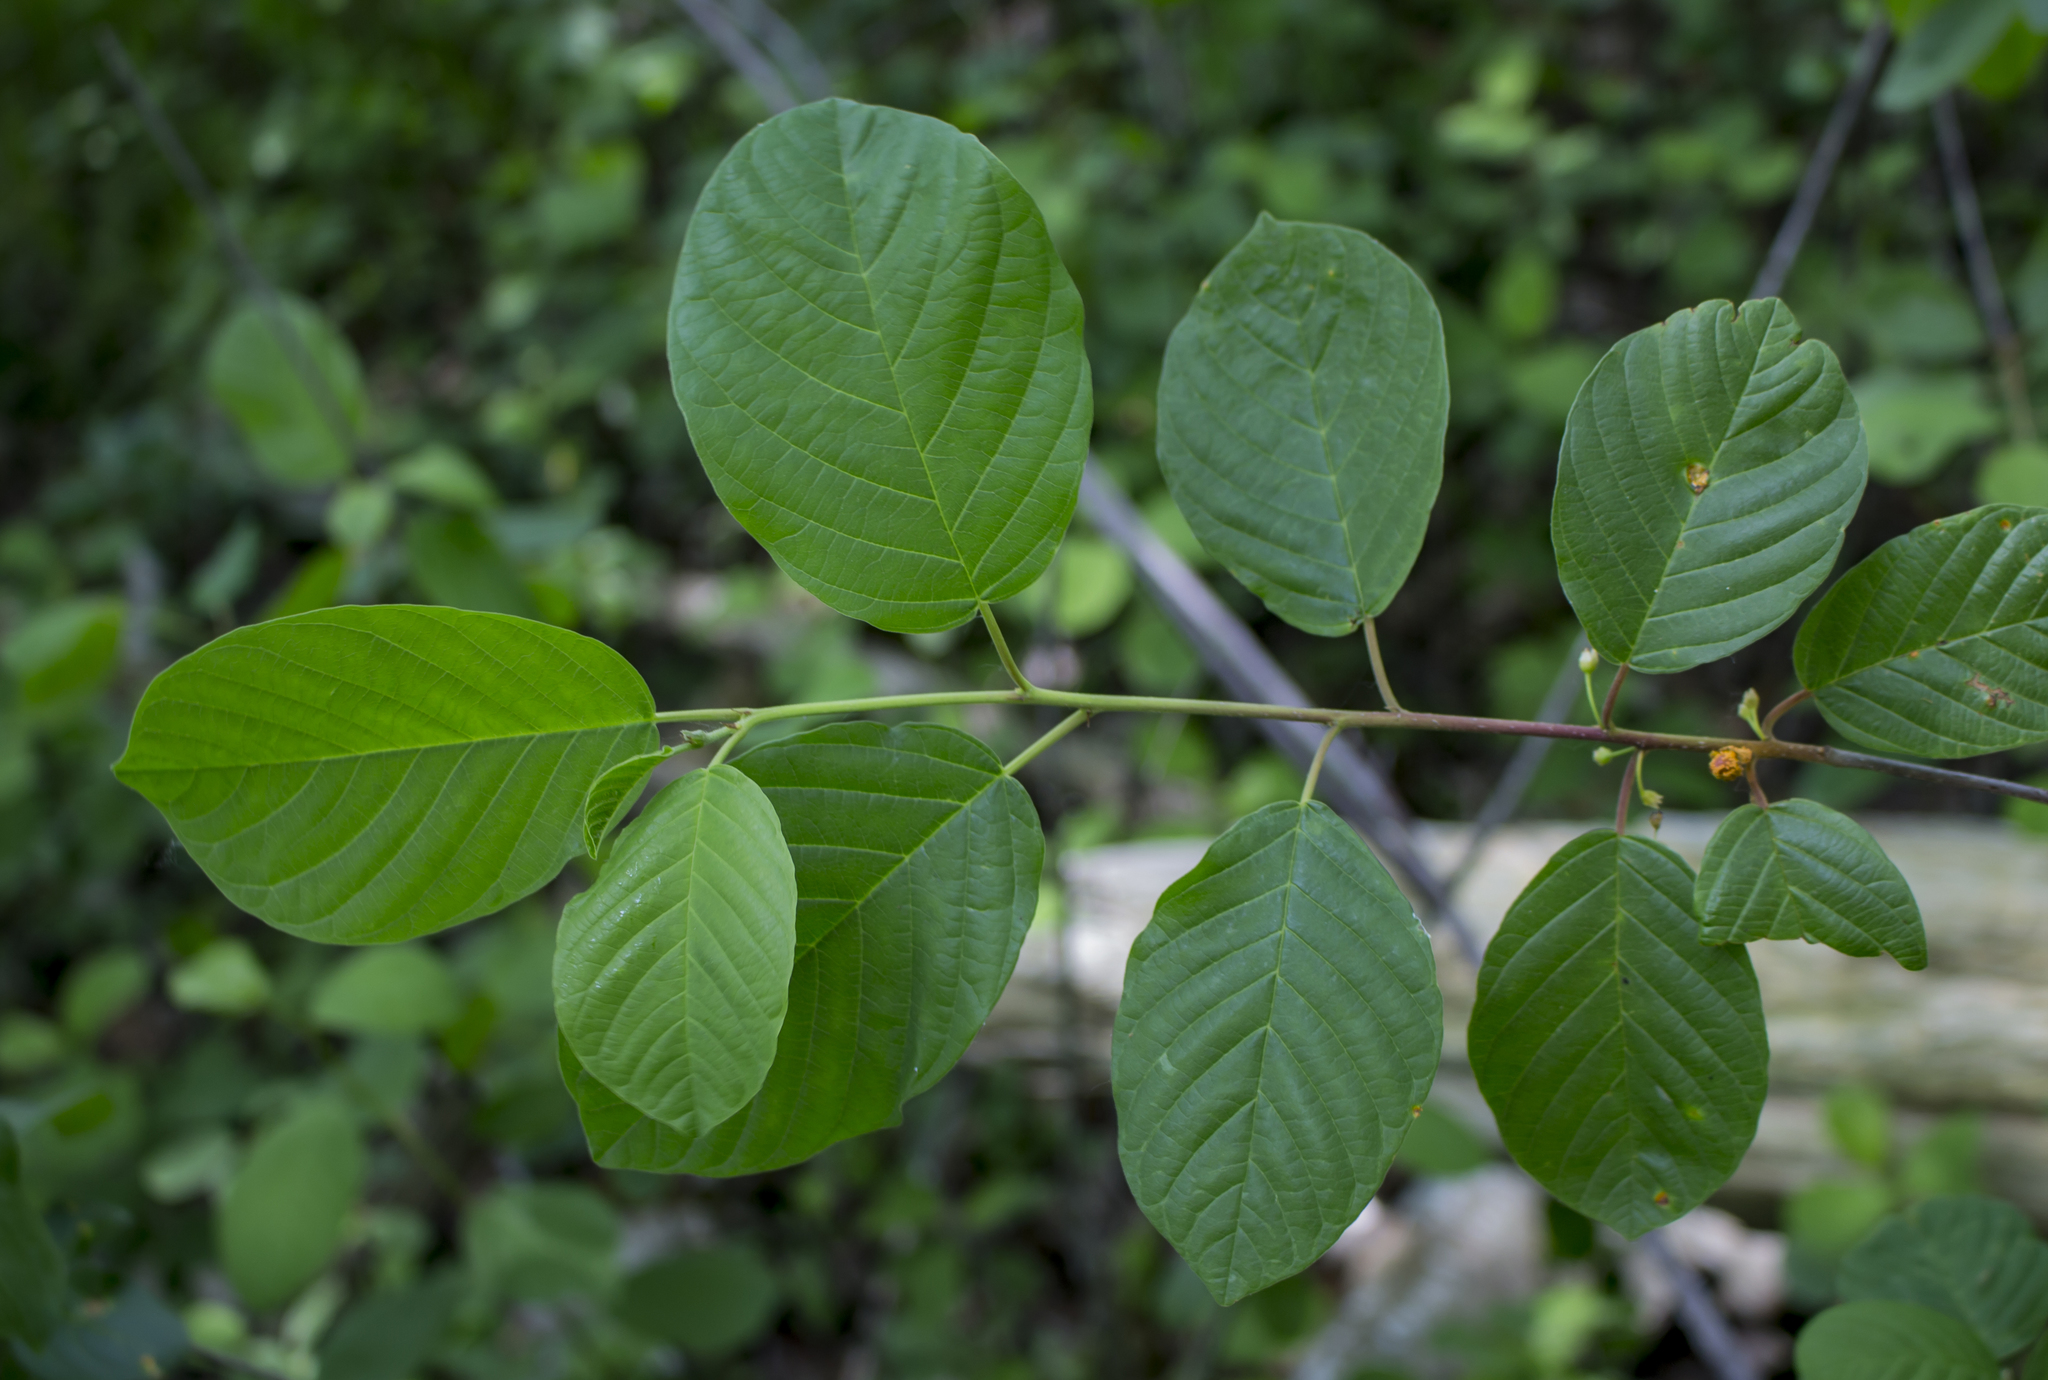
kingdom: Plantae
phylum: Tracheophyta
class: Magnoliopsida
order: Rosales
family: Rhamnaceae
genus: Frangula
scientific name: Frangula alnus
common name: Alder buckthorn
